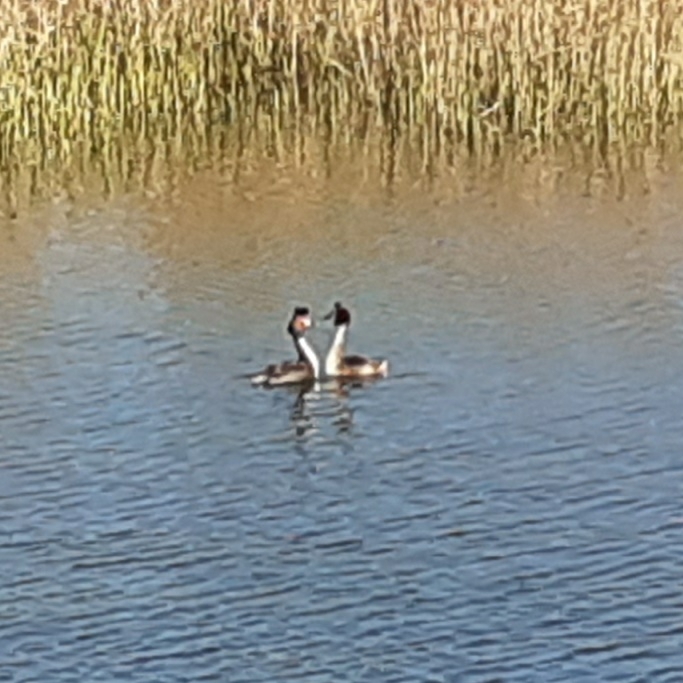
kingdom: Animalia
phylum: Chordata
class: Aves
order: Podicipediformes
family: Podicipedidae
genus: Podiceps
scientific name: Podiceps cristatus
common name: Great crested grebe
